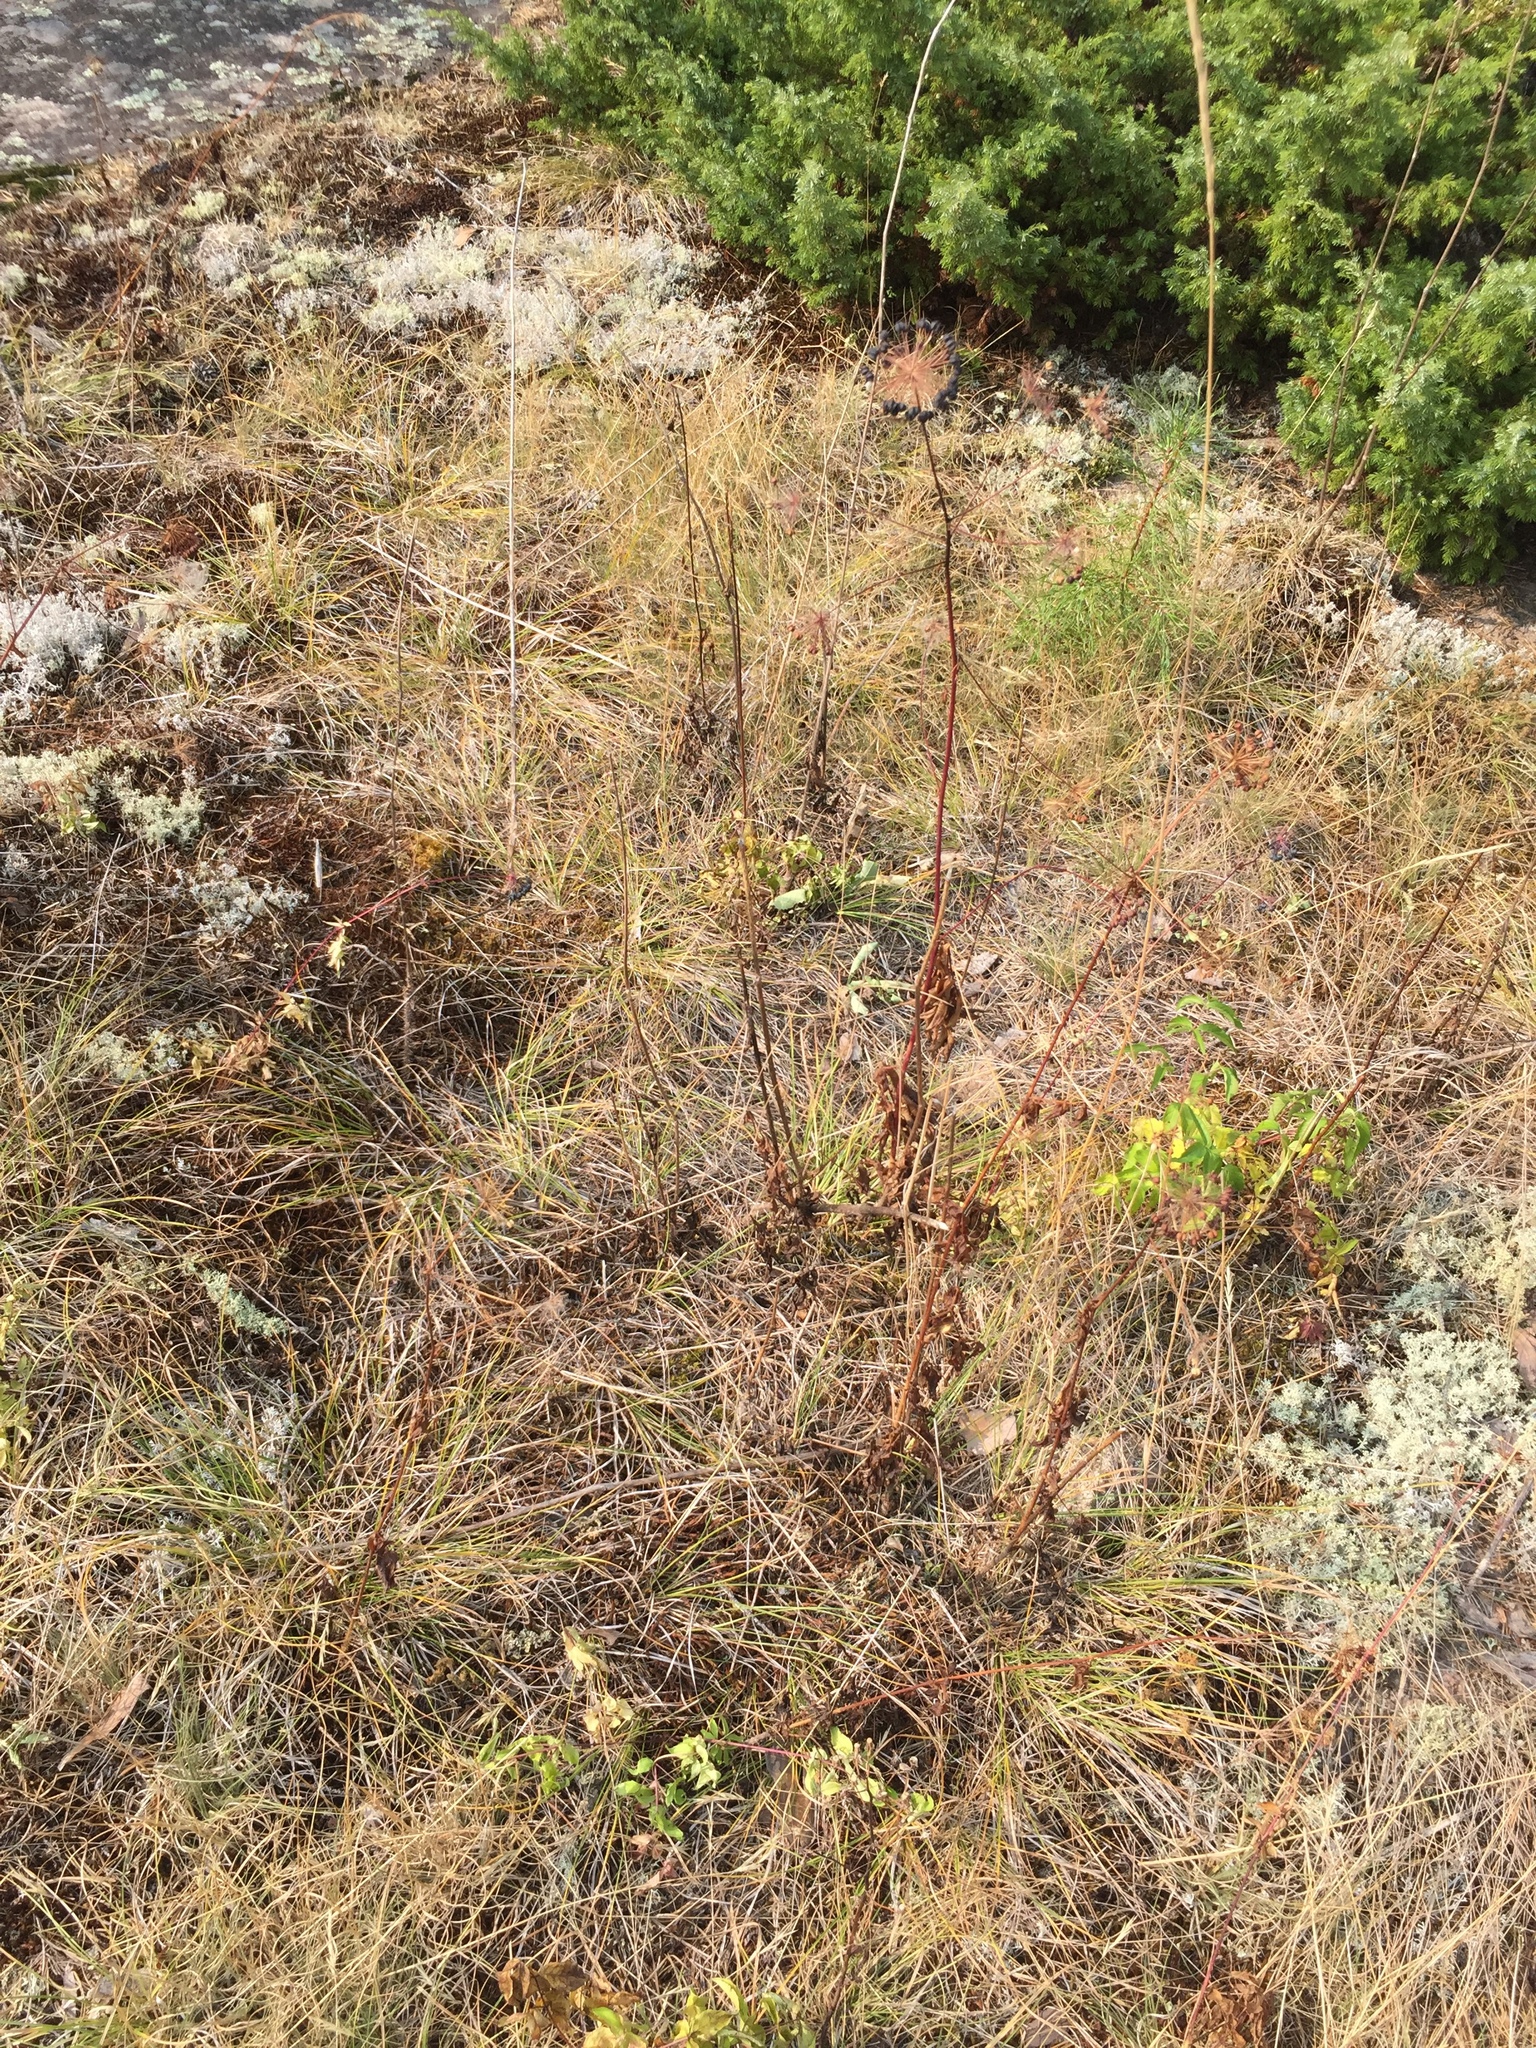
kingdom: Plantae
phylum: Tracheophyta
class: Magnoliopsida
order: Apiales
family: Araliaceae
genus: Aralia
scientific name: Aralia hispida
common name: Bristly sarsaparilla
